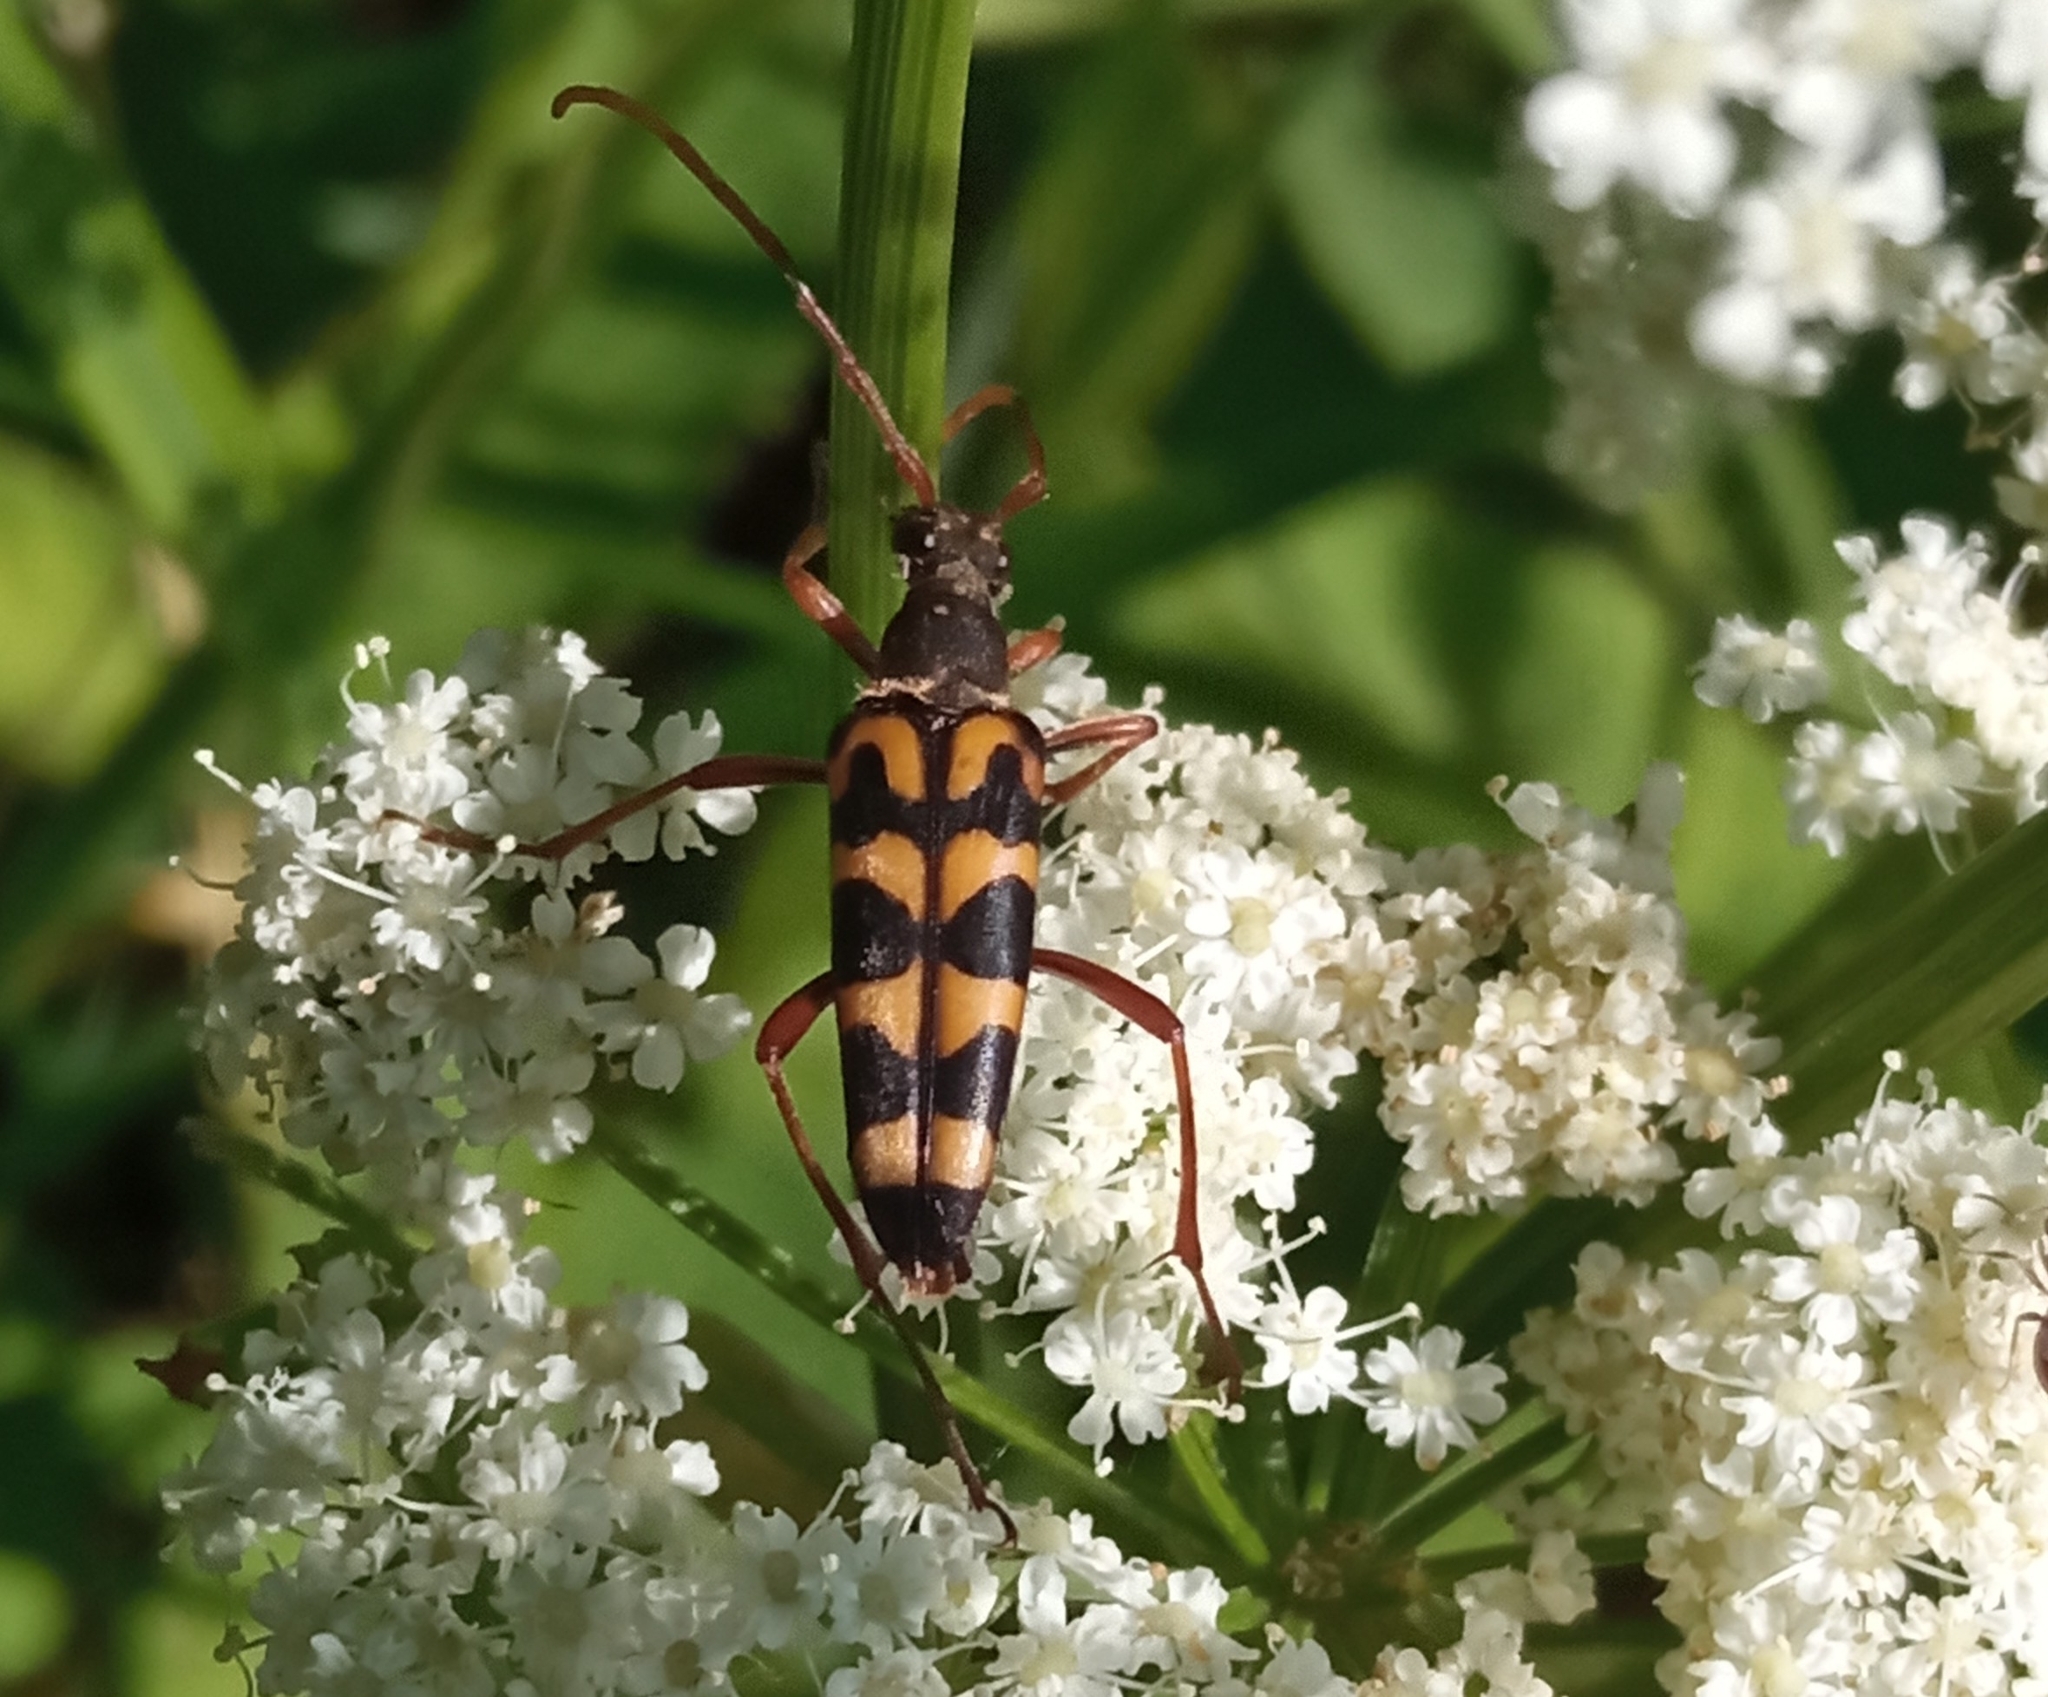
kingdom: Animalia
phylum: Arthropoda
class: Insecta
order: Coleoptera
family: Cerambycidae
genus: Leptura
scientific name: Leptura annularis
